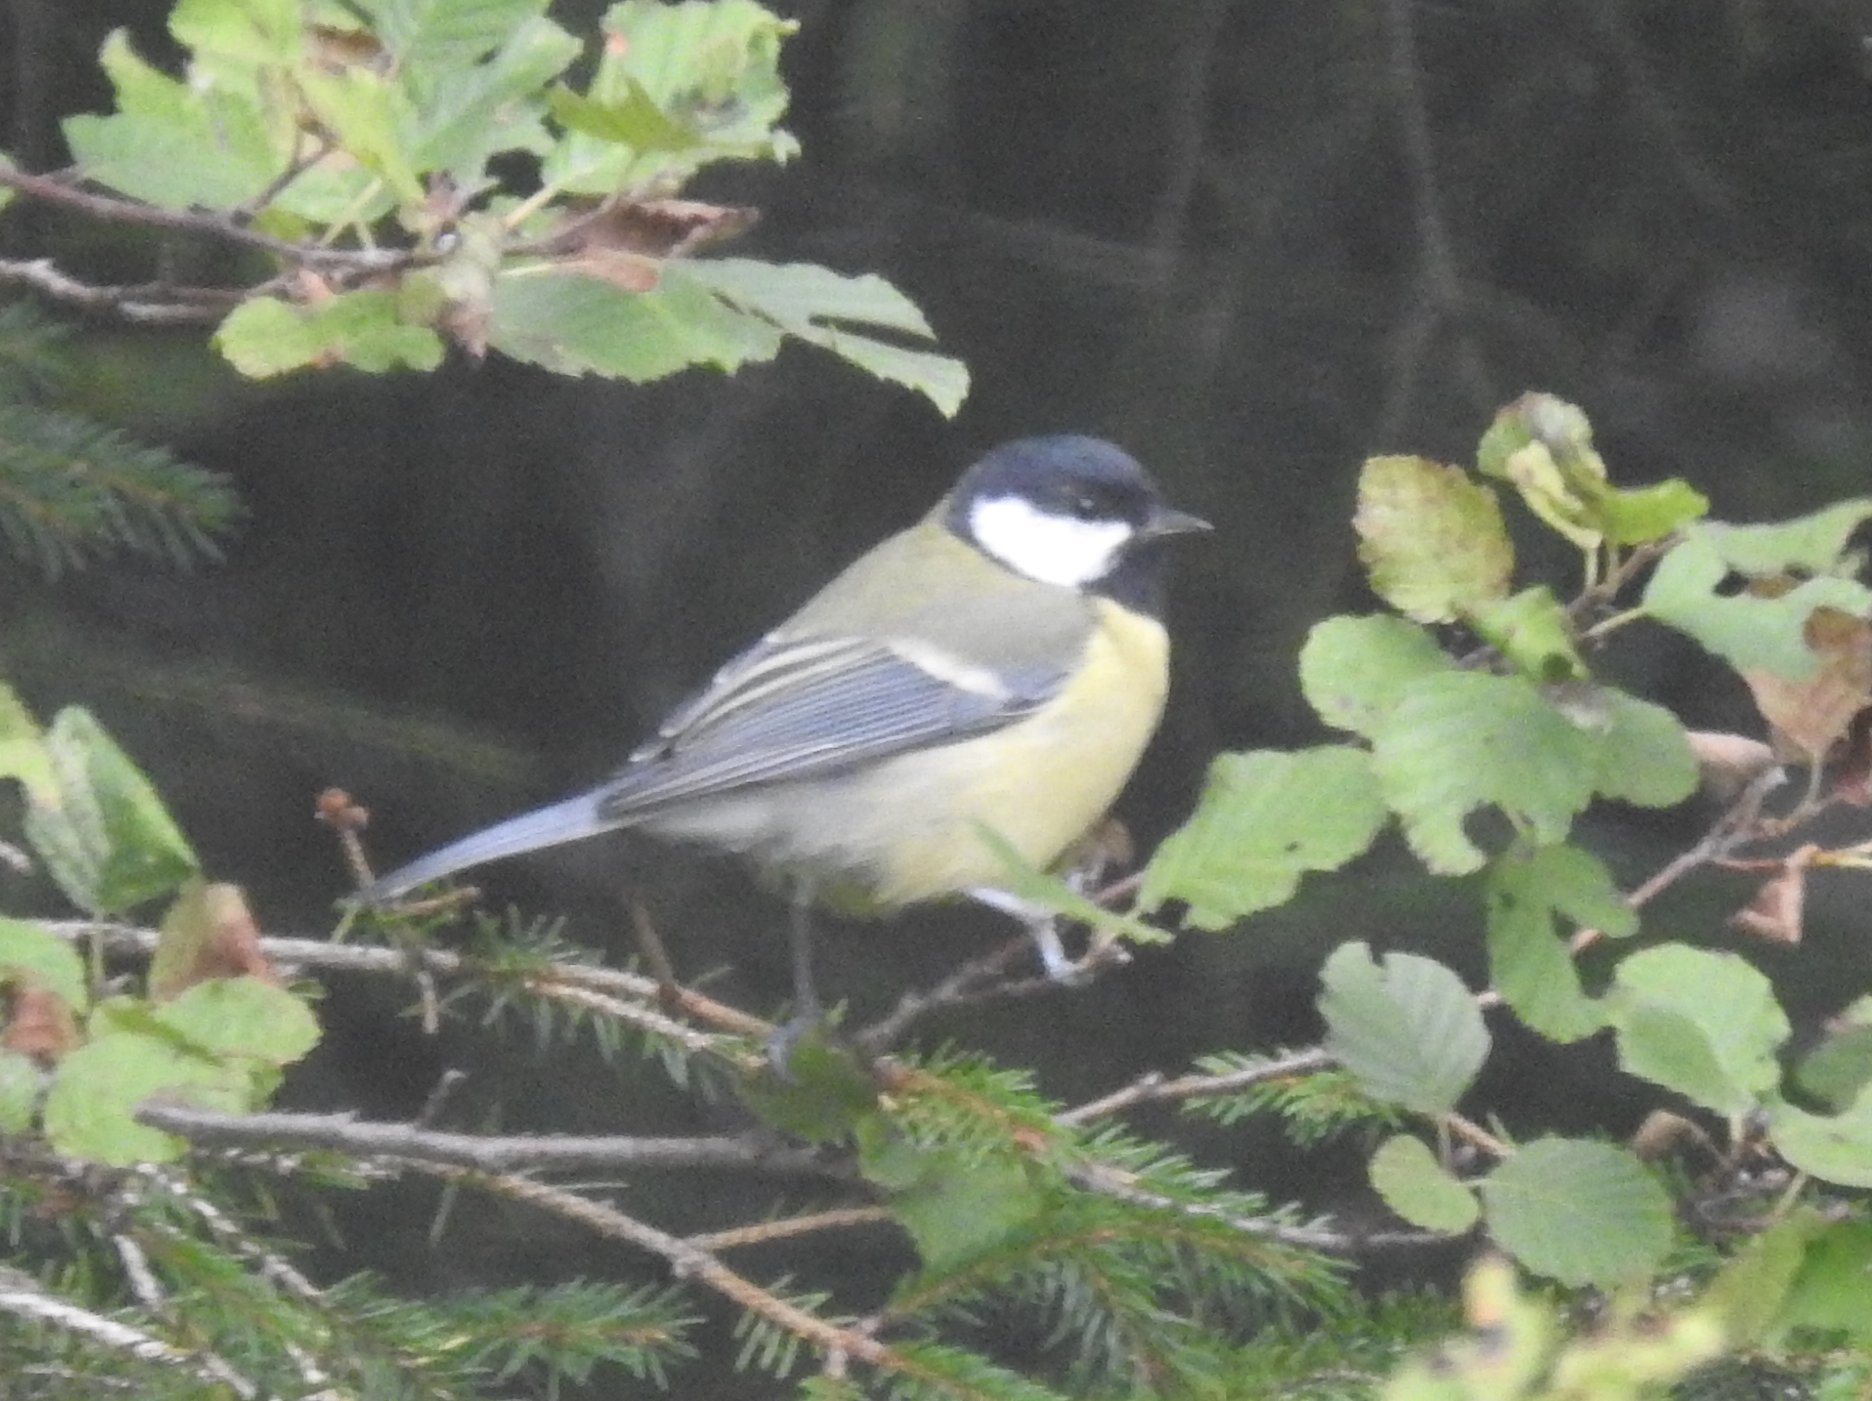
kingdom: Animalia
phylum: Chordata
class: Aves
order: Passeriformes
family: Paridae
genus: Parus
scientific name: Parus major
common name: Great tit
